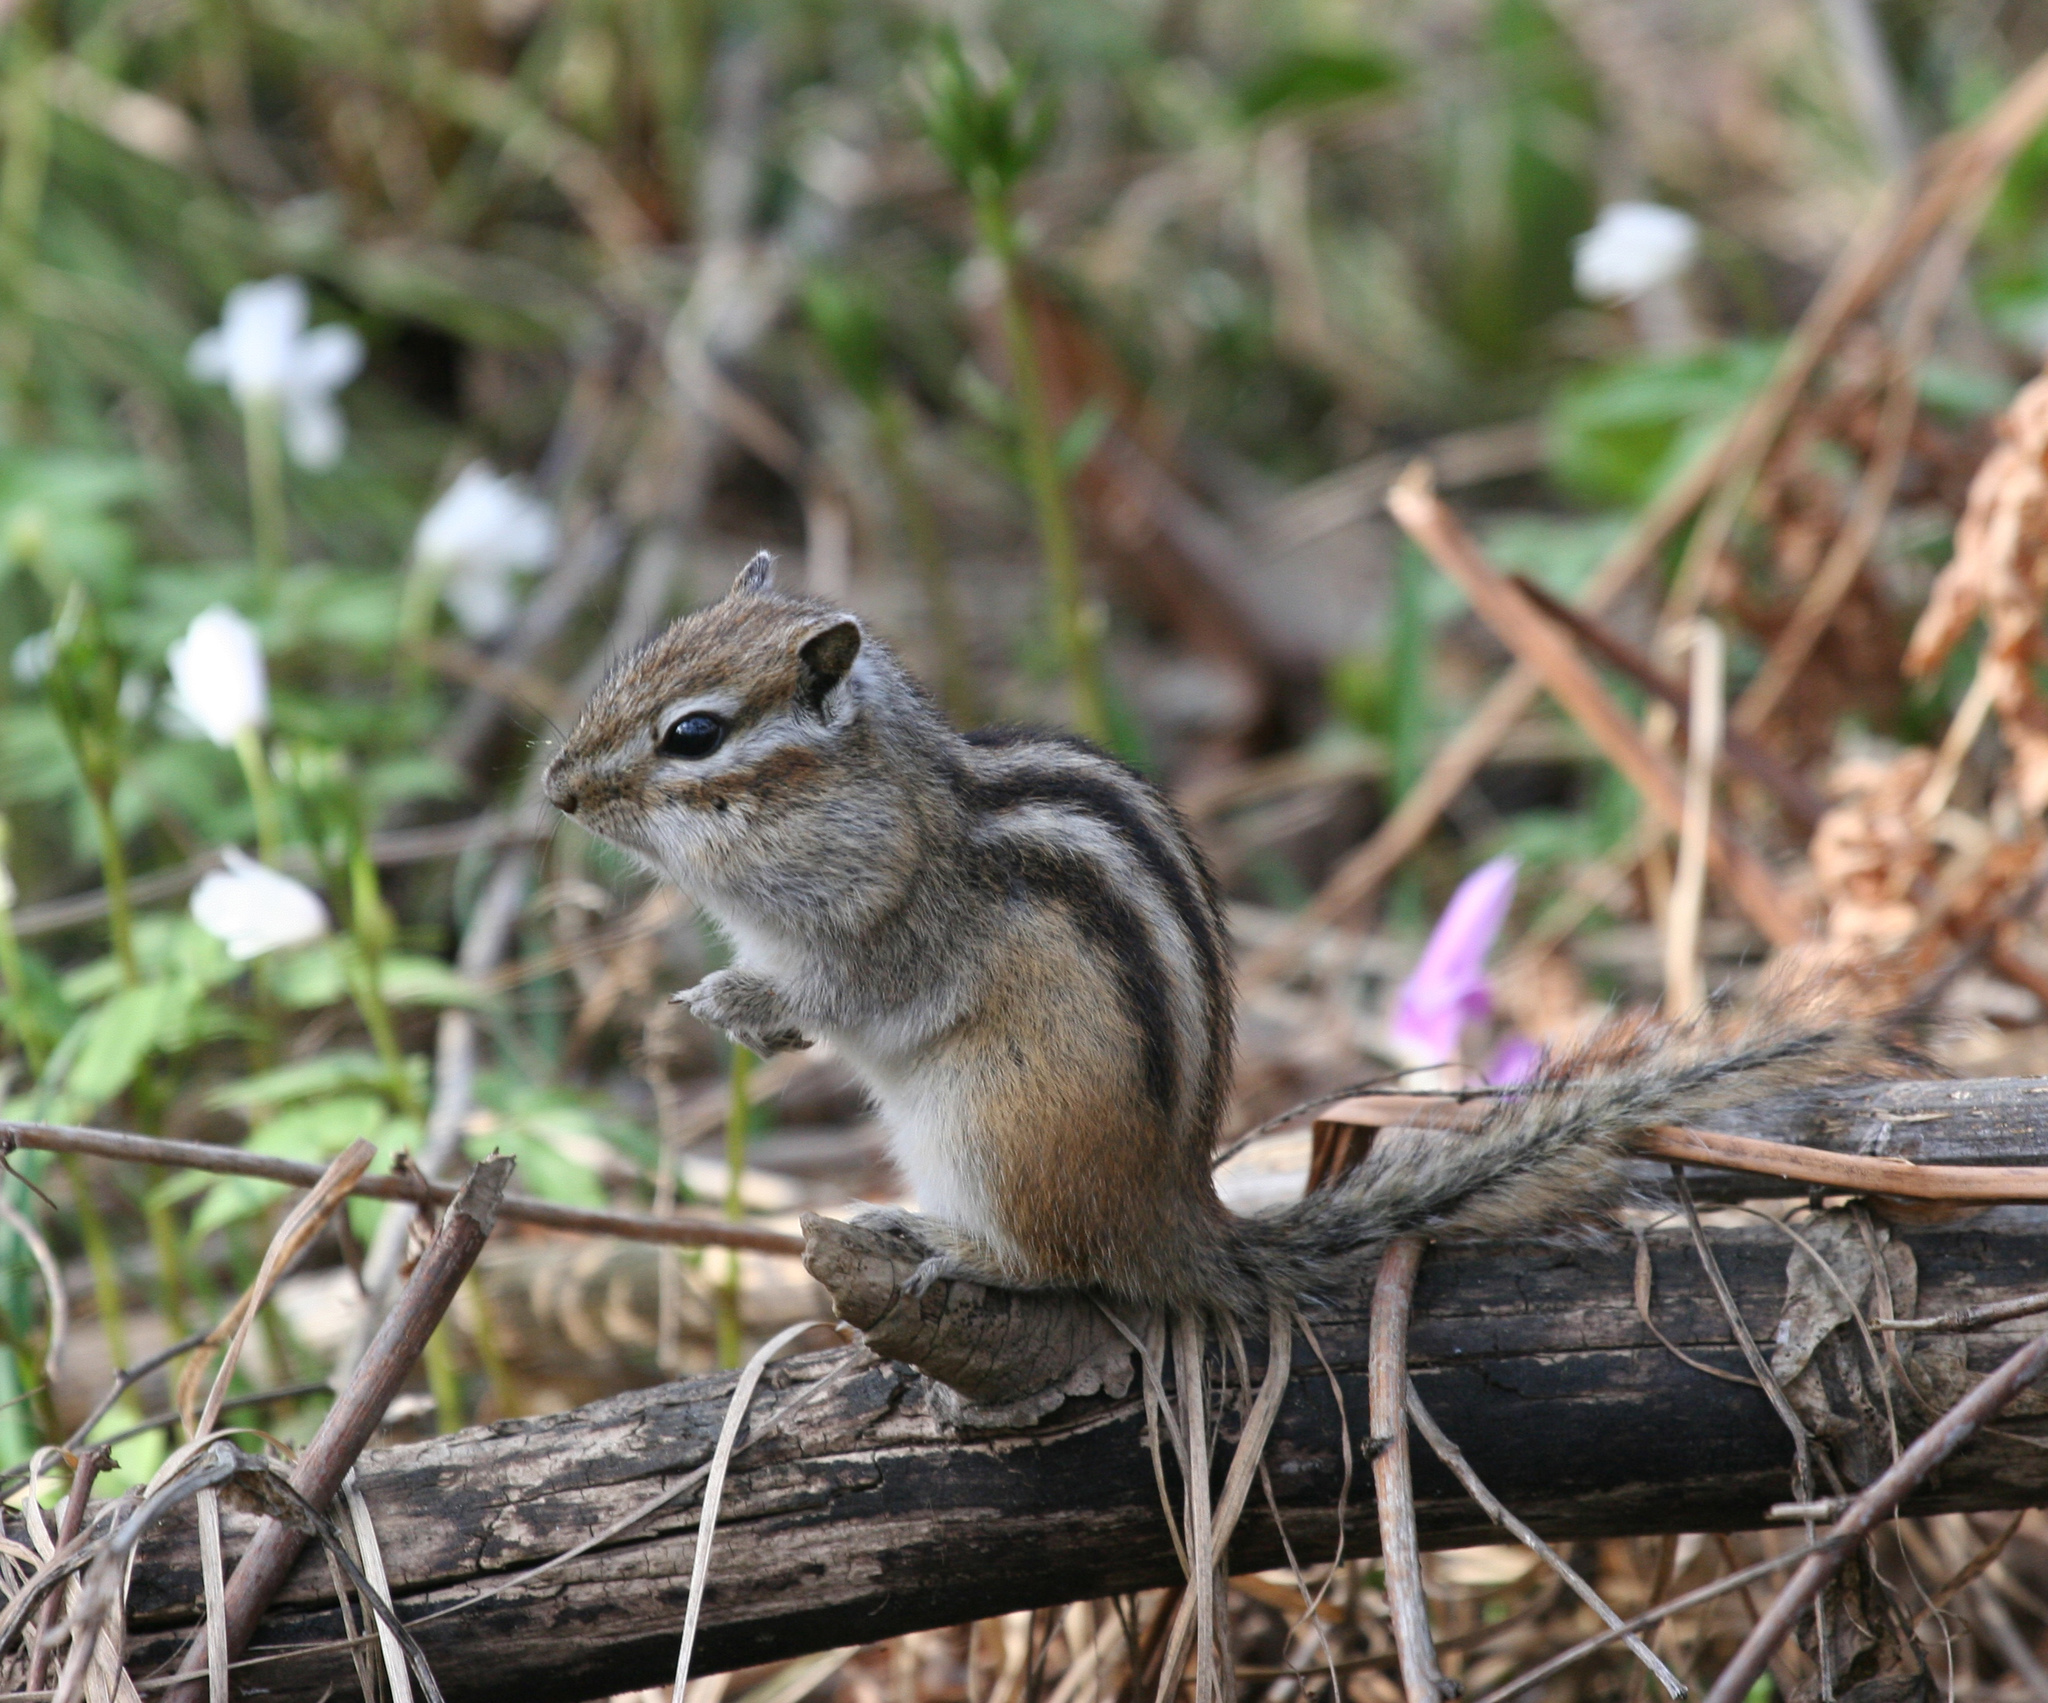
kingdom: Animalia
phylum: Chordata
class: Mammalia
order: Rodentia
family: Sciuridae
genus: Tamias
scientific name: Tamias sibiricus
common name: Siberian chipmunk
